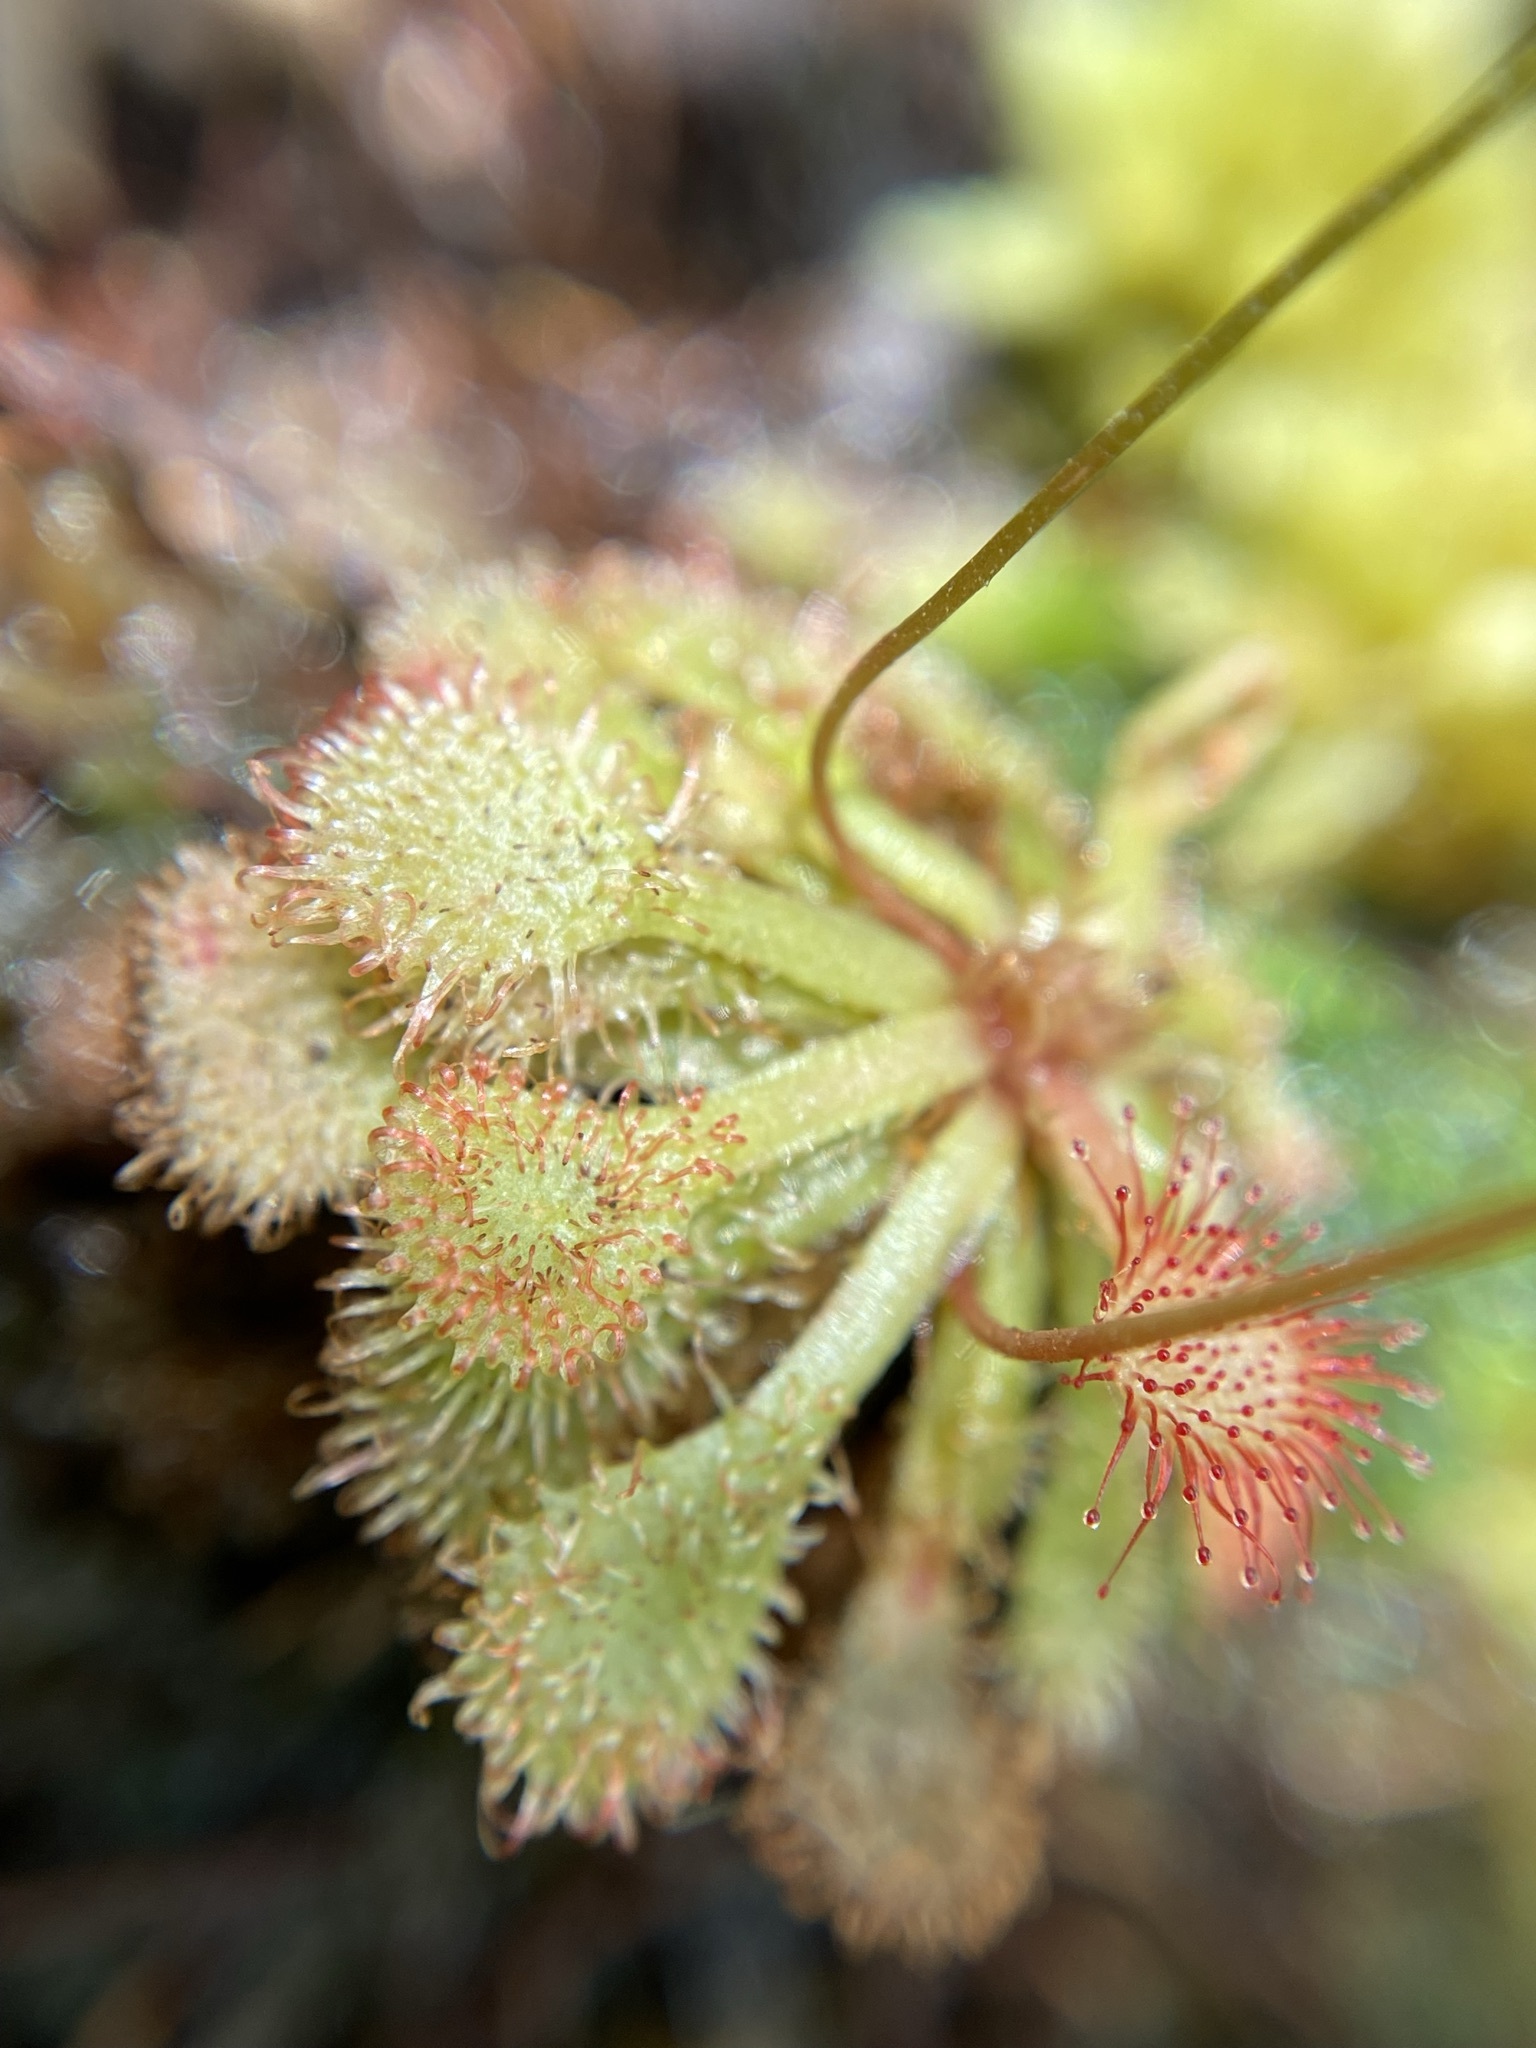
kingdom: Plantae
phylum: Tracheophyta
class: Magnoliopsida
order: Caryophyllales
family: Droseraceae
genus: Drosera
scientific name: Drosera capillaris
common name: Pink sundew
